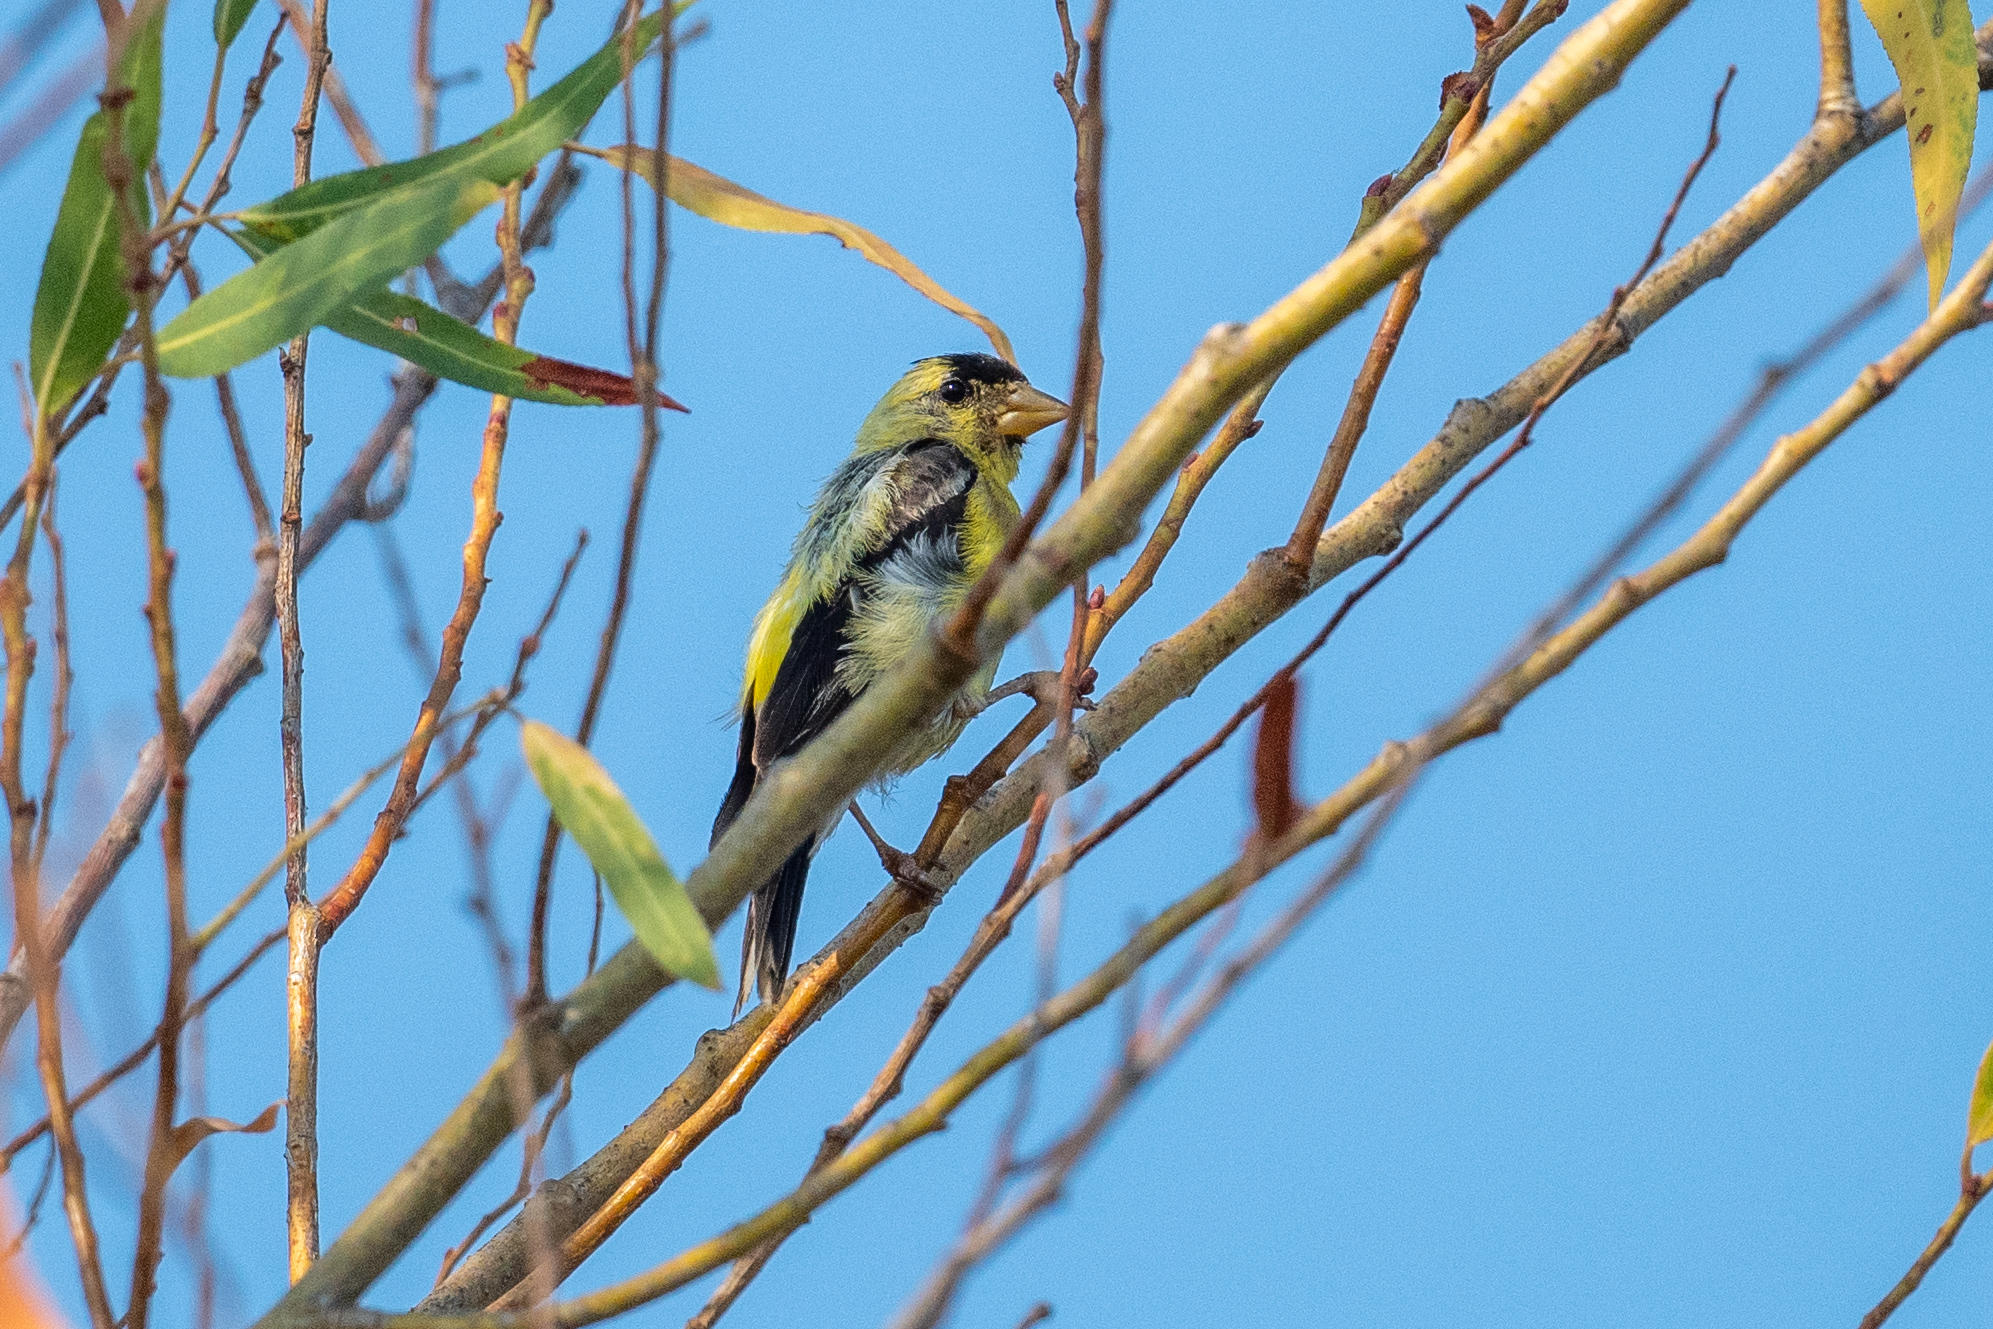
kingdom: Animalia
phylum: Chordata
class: Aves
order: Passeriformes
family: Fringillidae
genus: Spinus
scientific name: Spinus tristis
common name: American goldfinch
